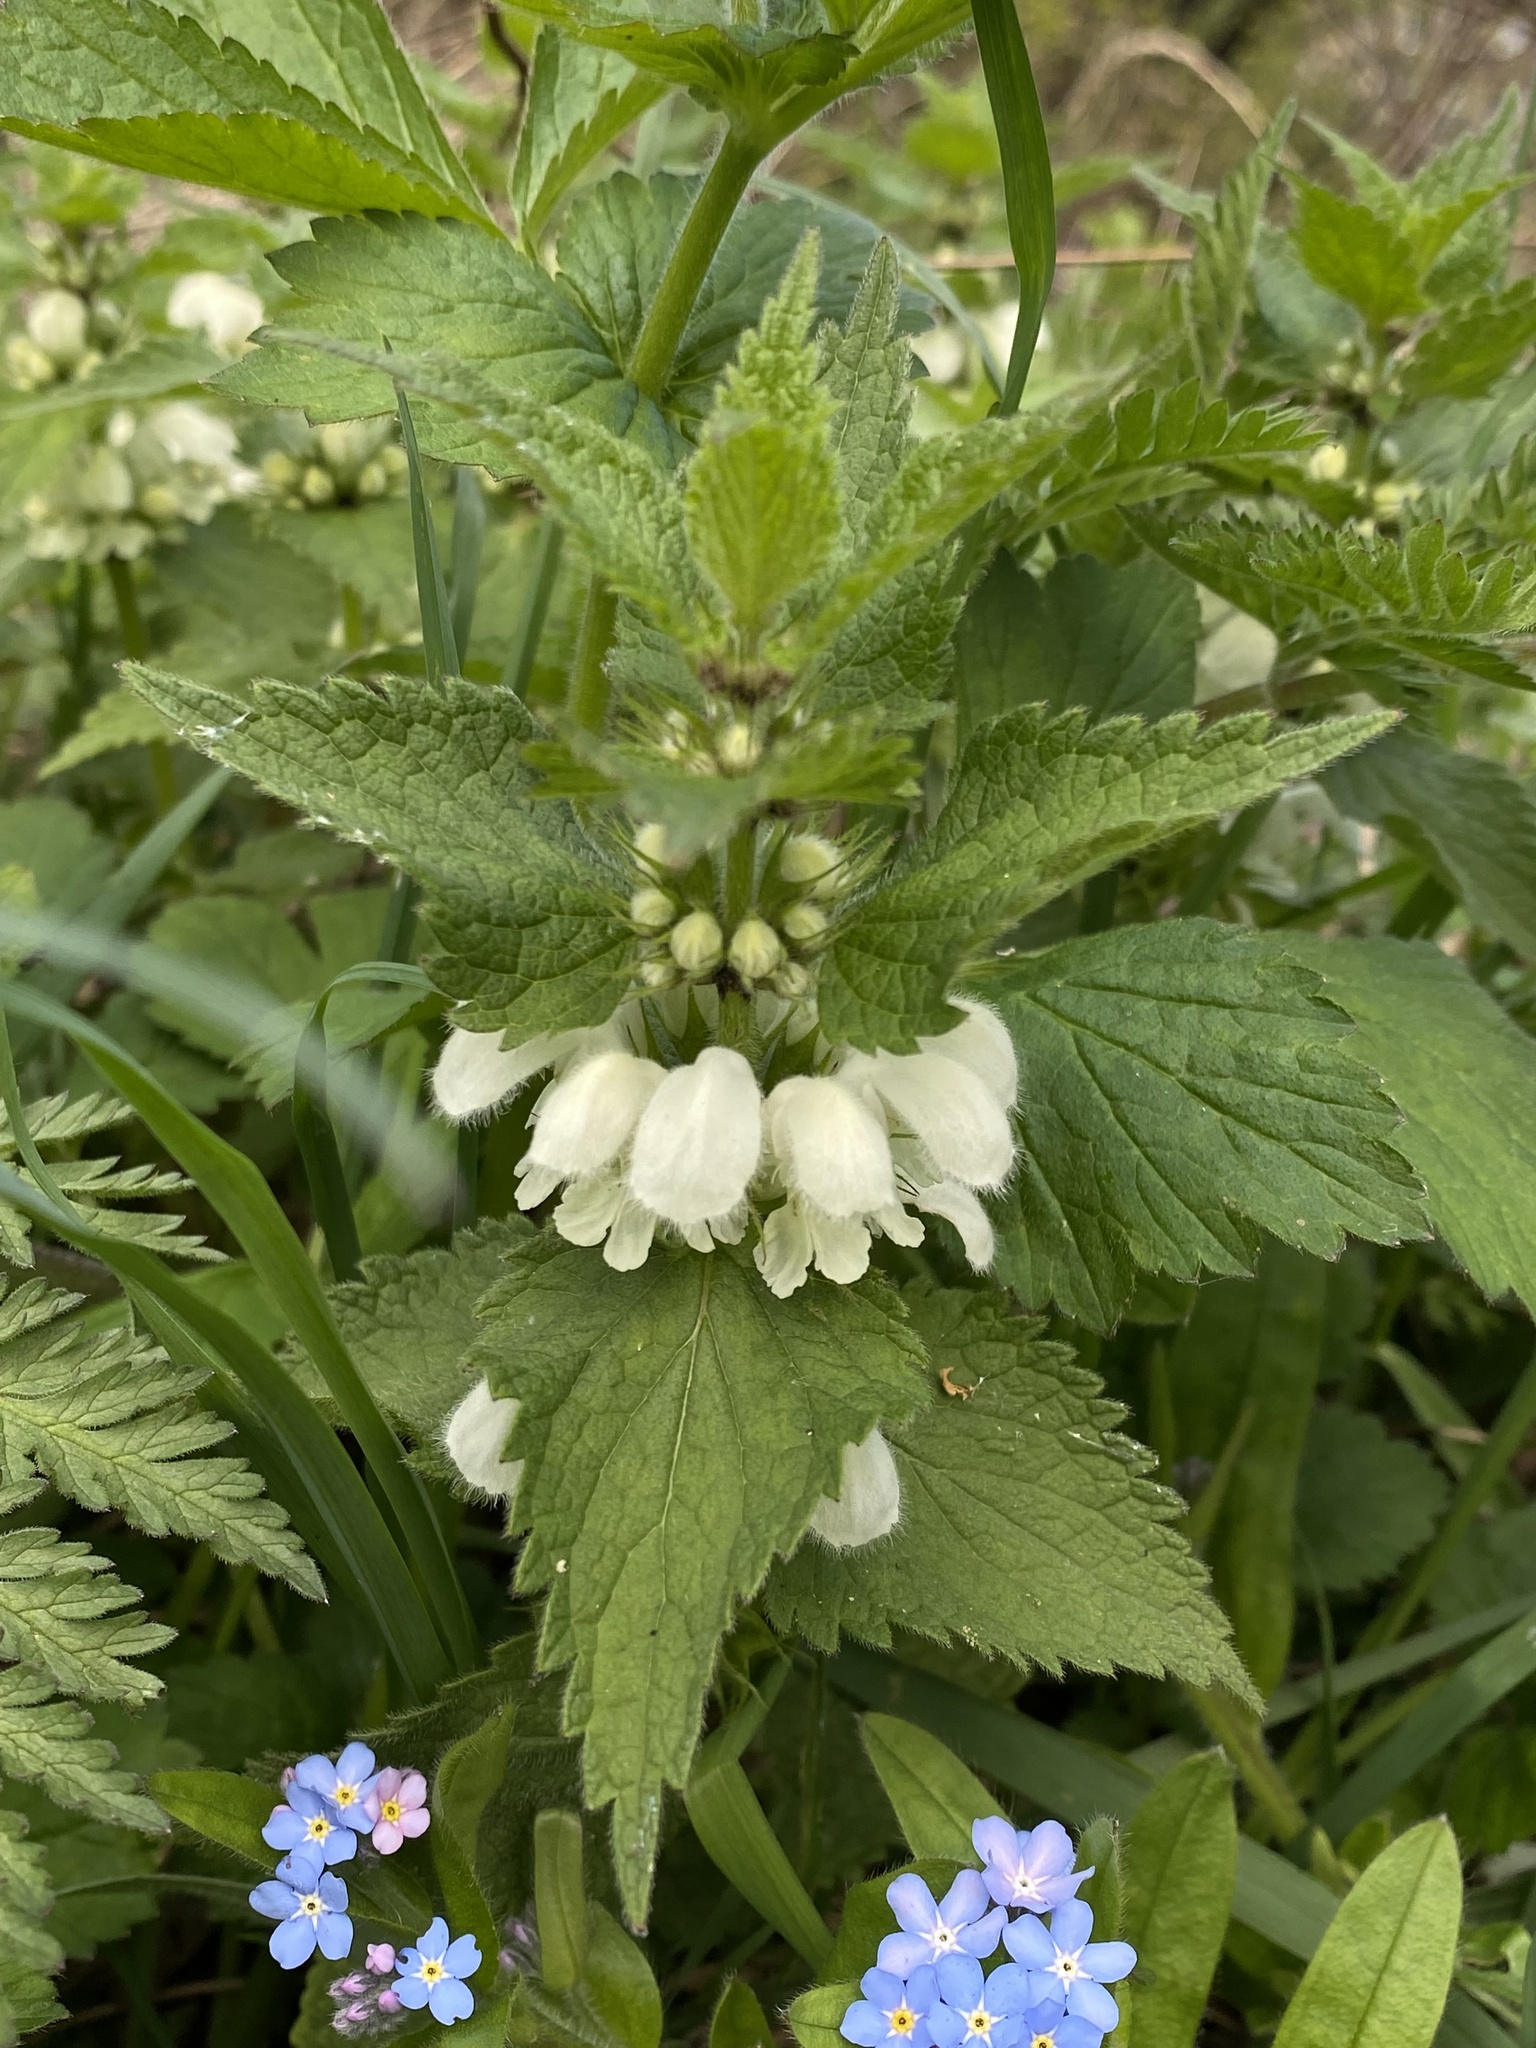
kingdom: Plantae
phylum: Tracheophyta
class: Magnoliopsida
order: Lamiales
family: Lamiaceae
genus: Lamium
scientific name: Lamium album
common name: White dead-nettle
